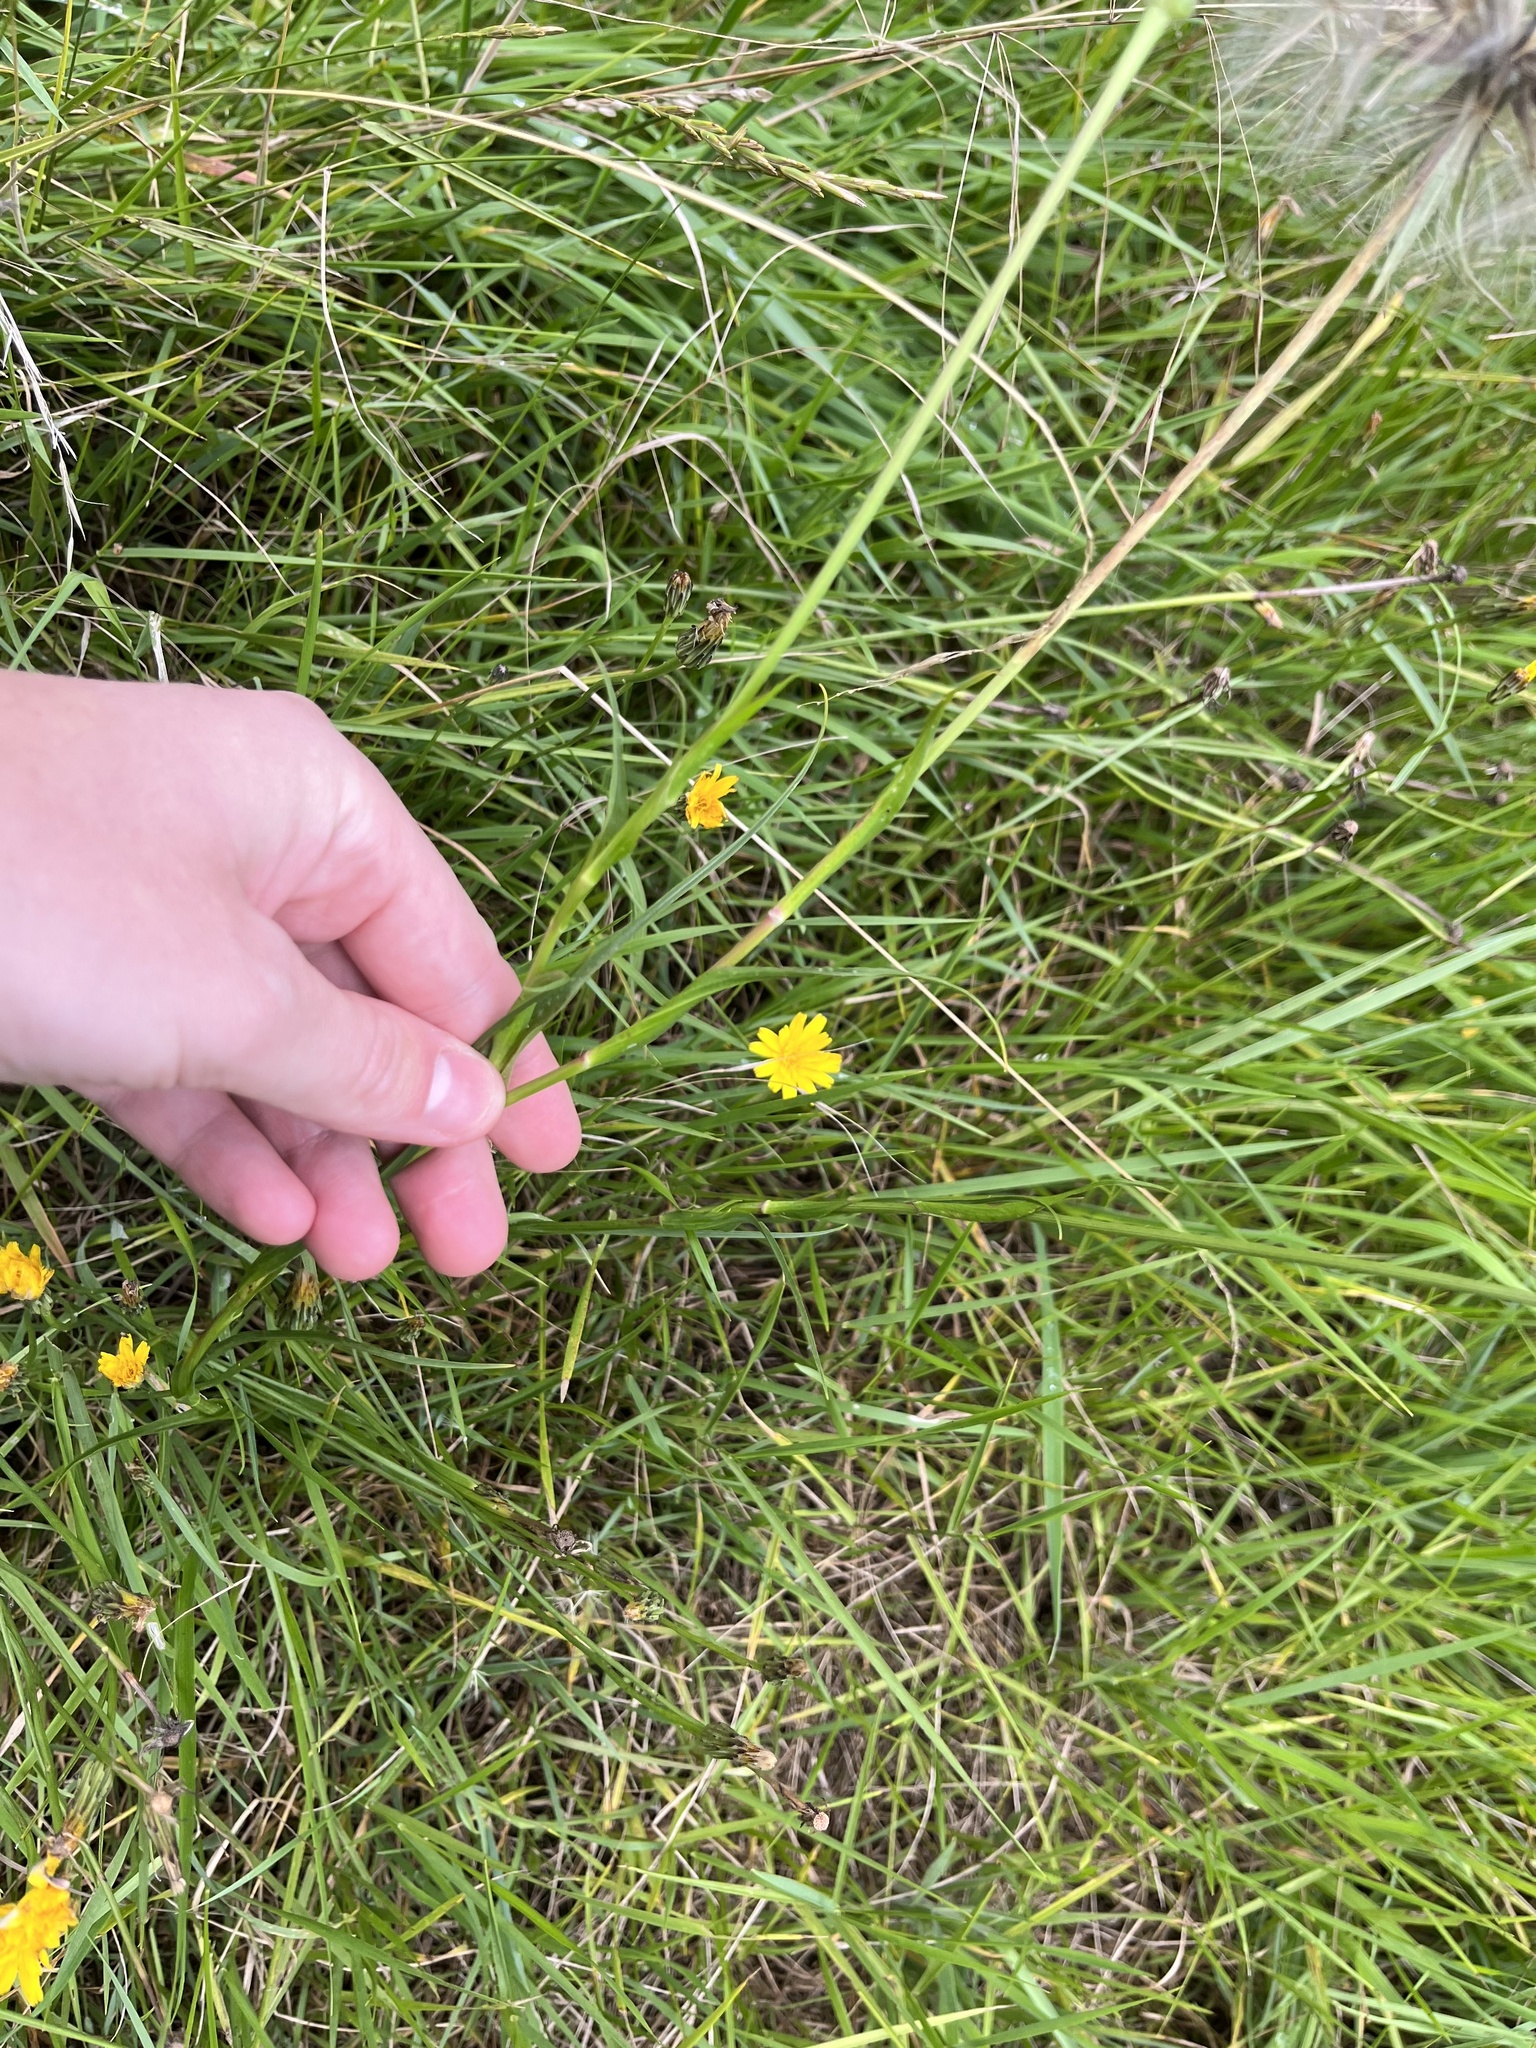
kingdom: Plantae
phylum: Tracheophyta
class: Magnoliopsida
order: Asterales
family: Asteraceae
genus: Tragopogon
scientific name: Tragopogon pratensis
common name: Goat's-beard
